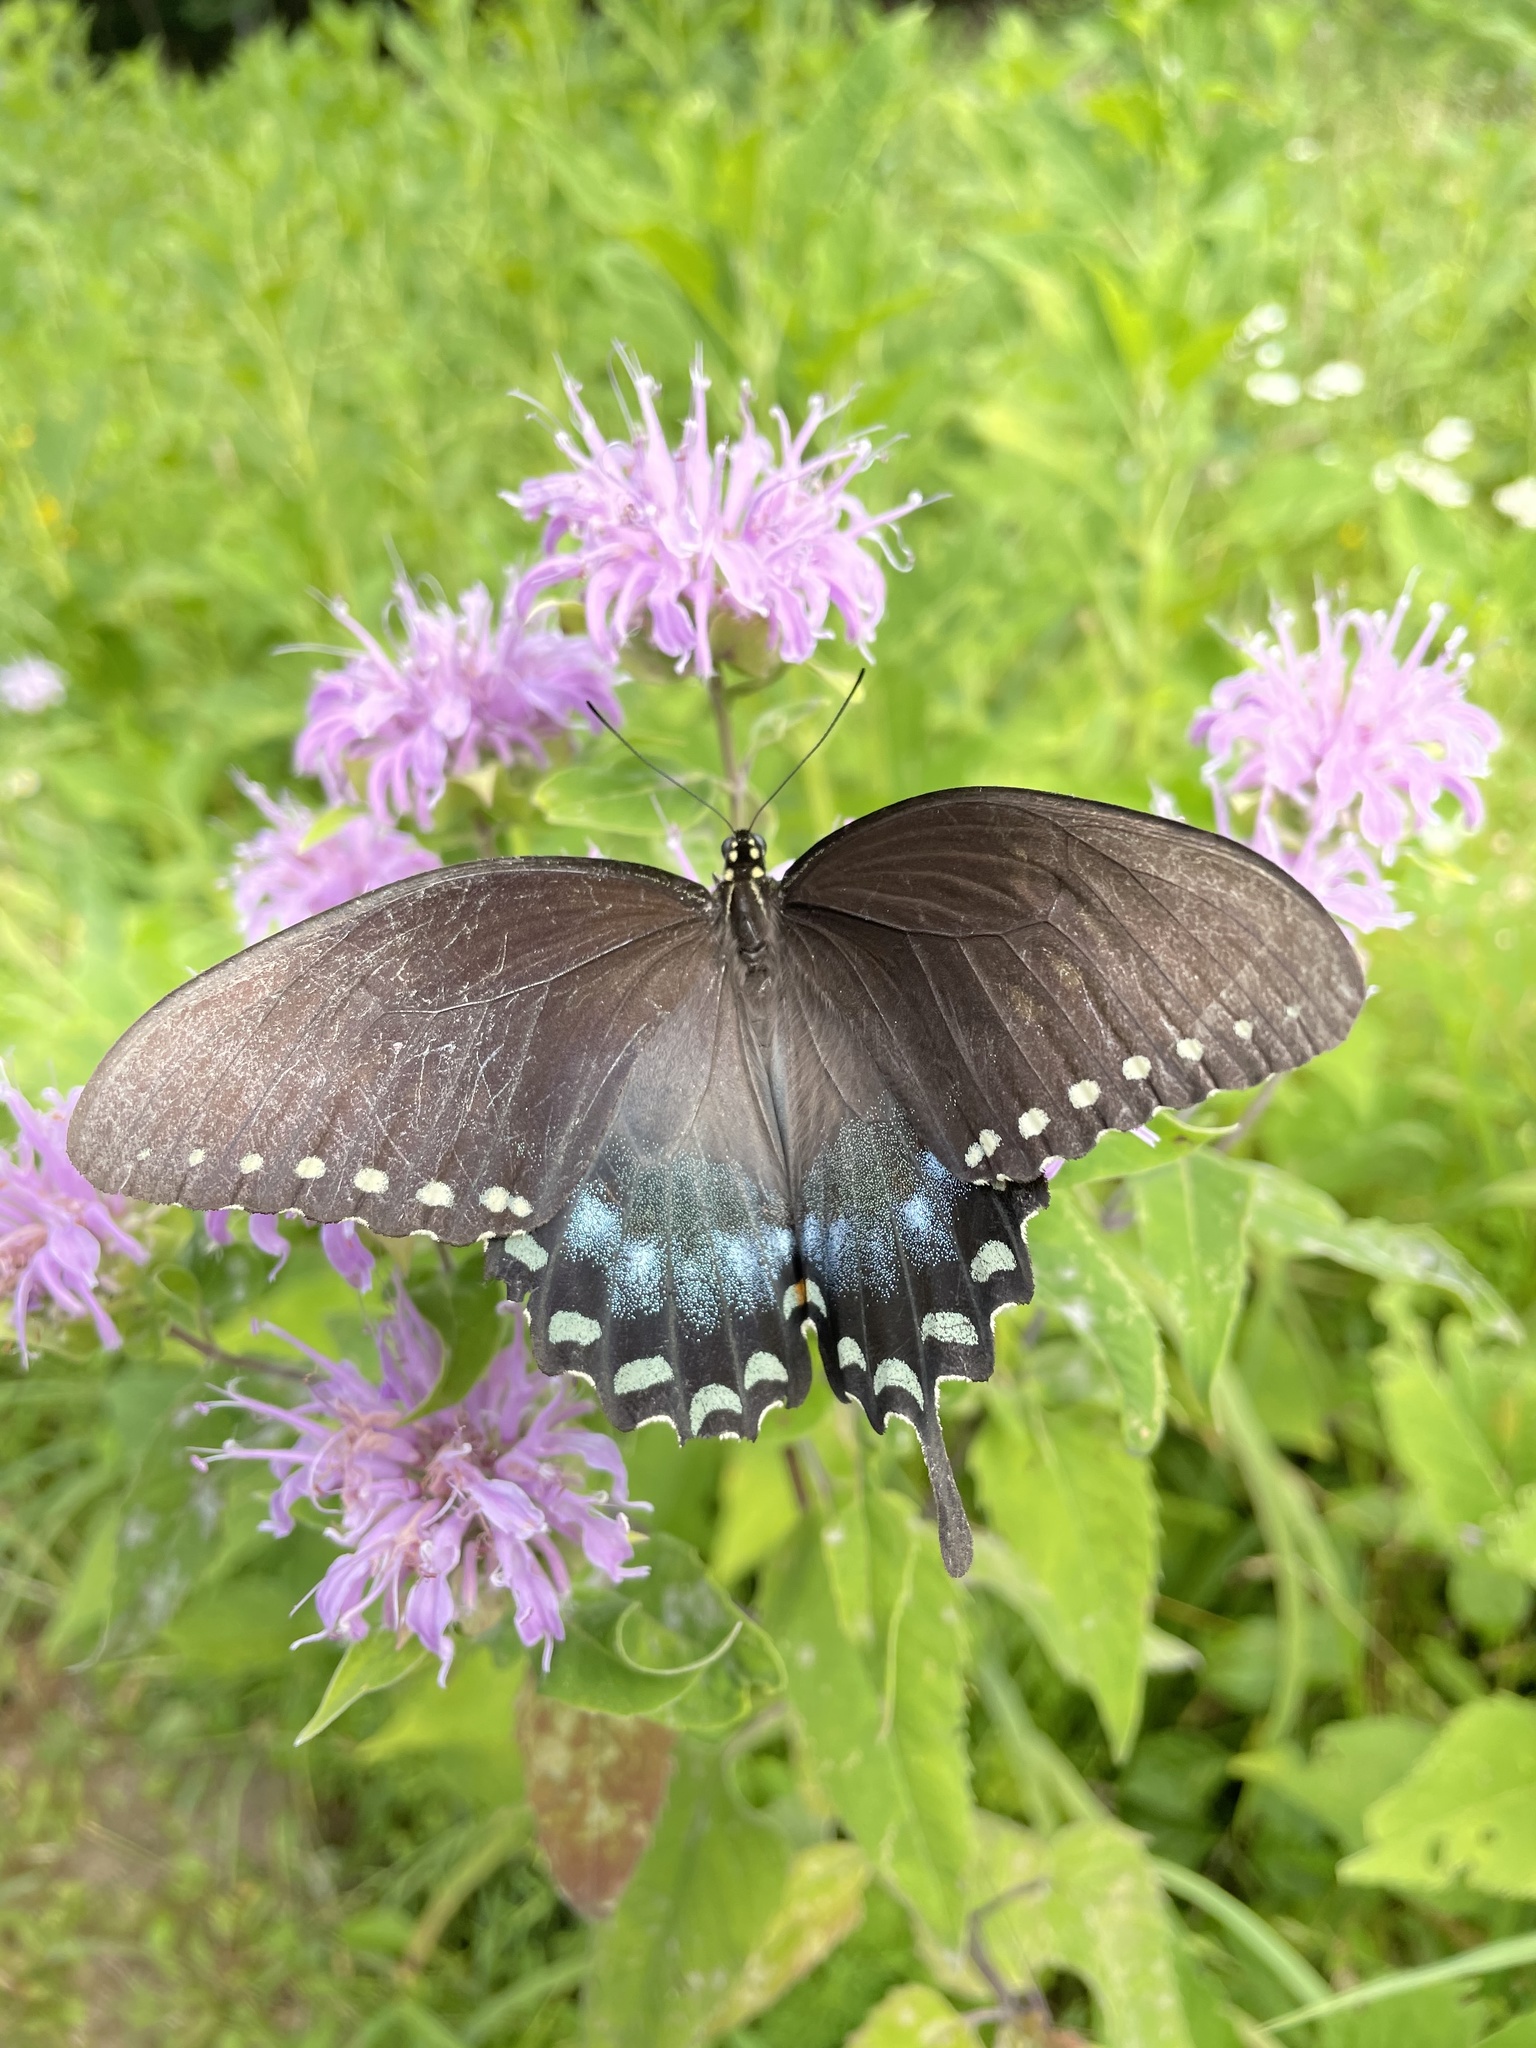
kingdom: Animalia
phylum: Arthropoda
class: Insecta
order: Lepidoptera
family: Papilionidae
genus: Papilio
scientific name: Papilio troilus
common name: Spicebush swallowtail
